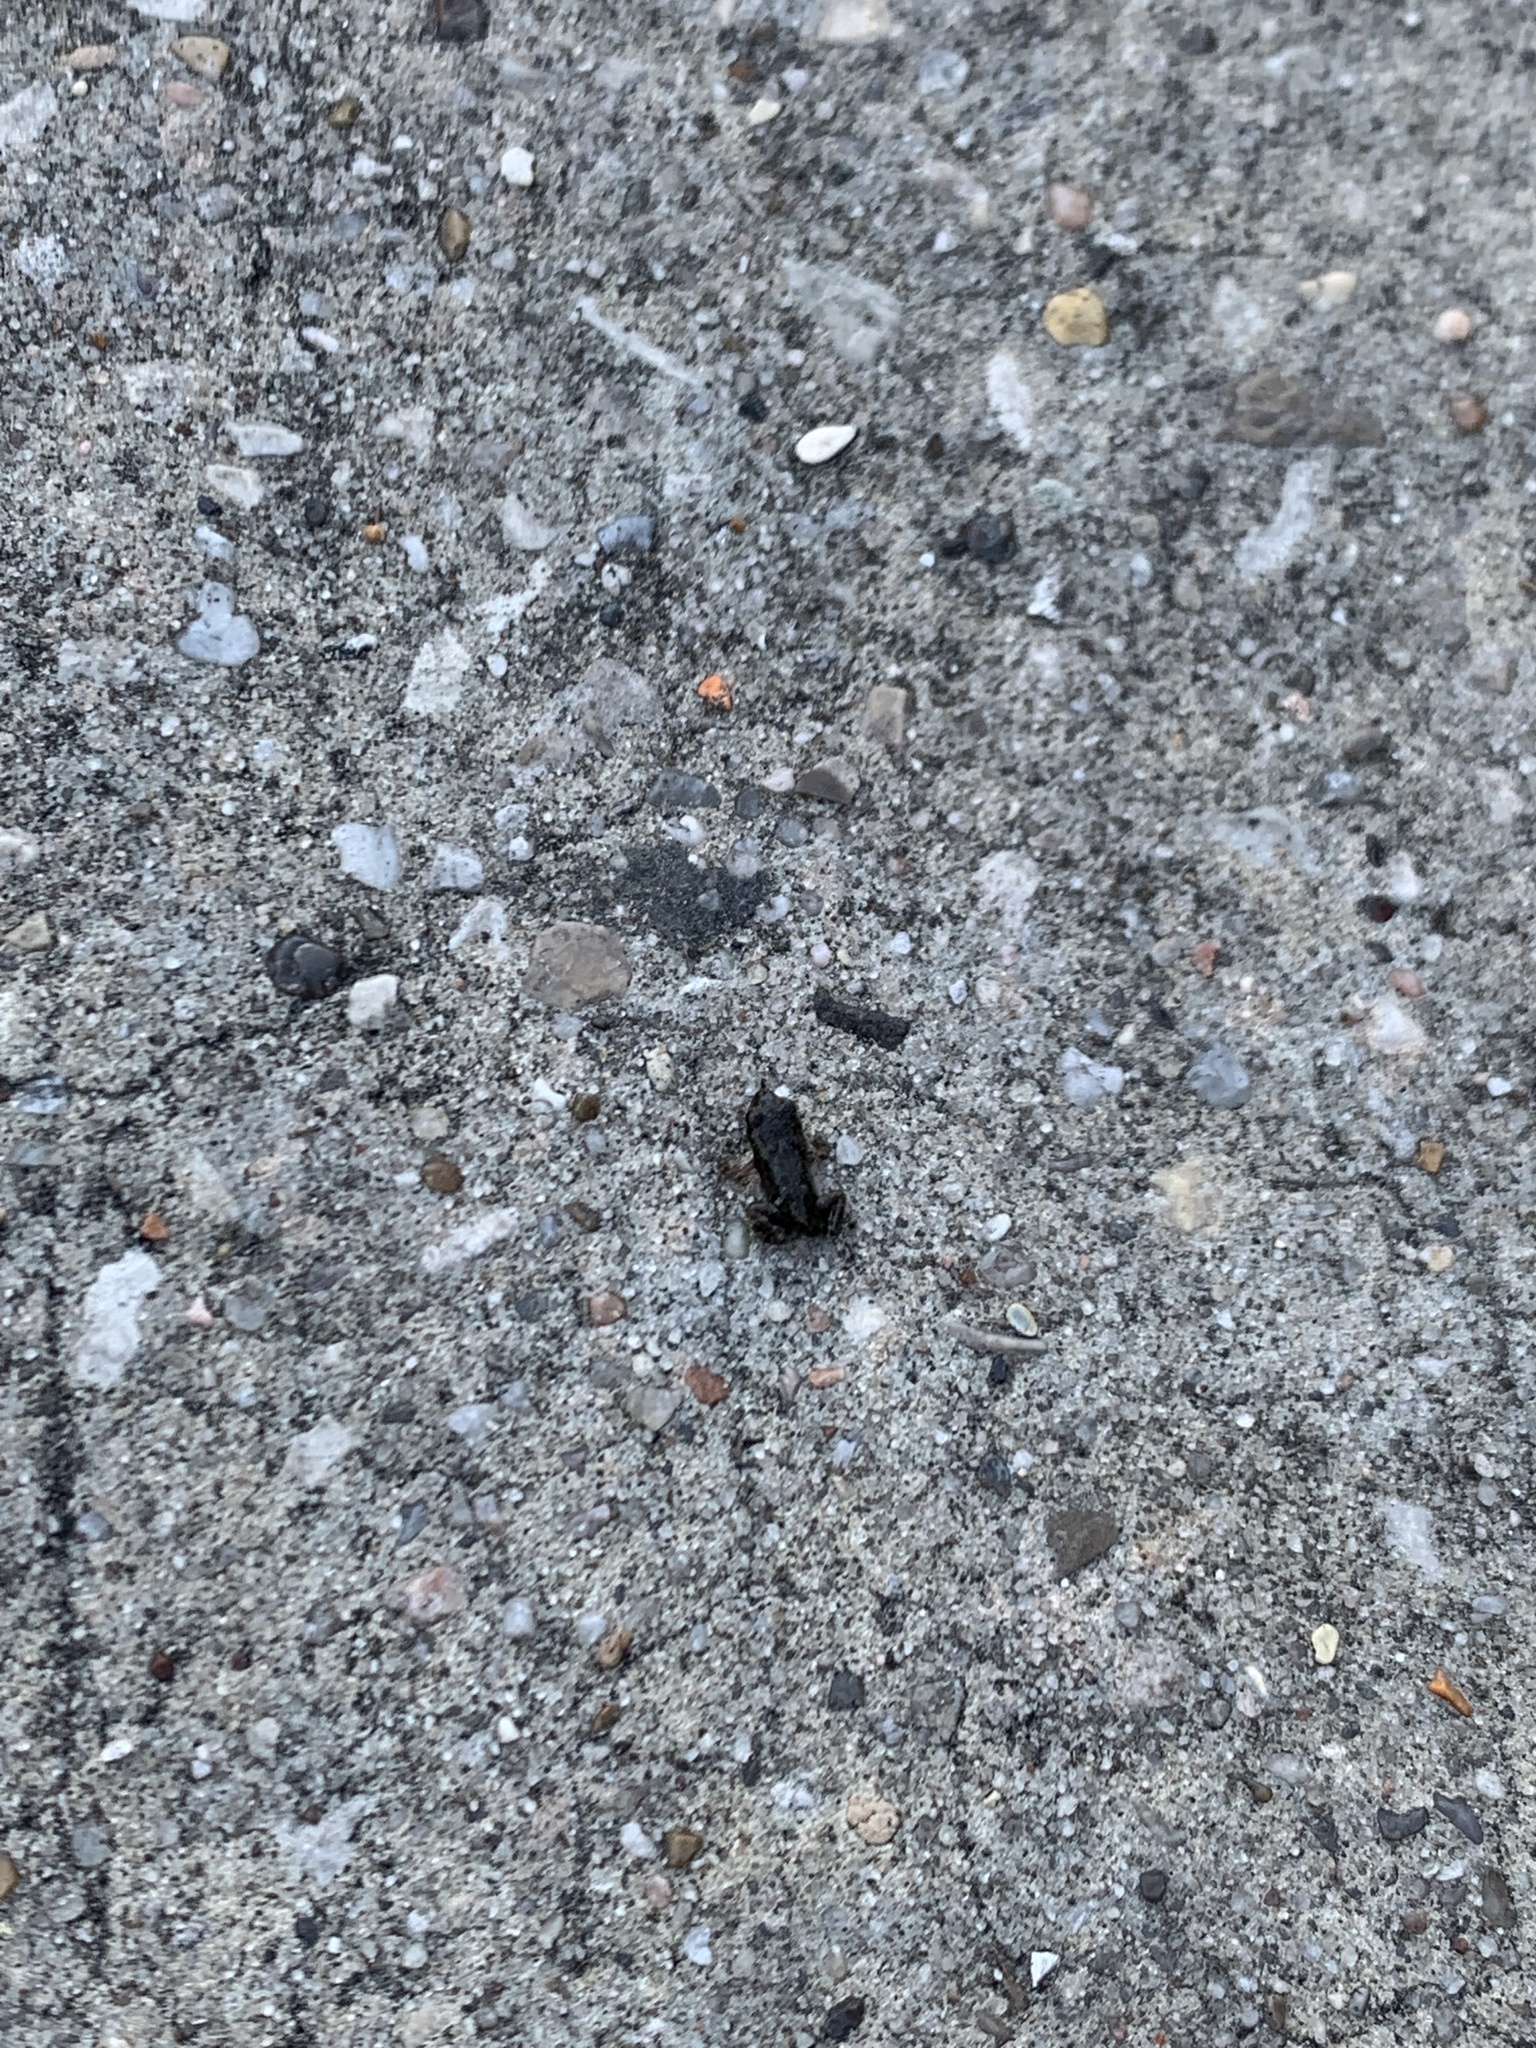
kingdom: Animalia
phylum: Chordata
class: Amphibia
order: Anura
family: Bufonidae
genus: Incilius
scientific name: Incilius nebulifer
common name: Gulf coast toad
